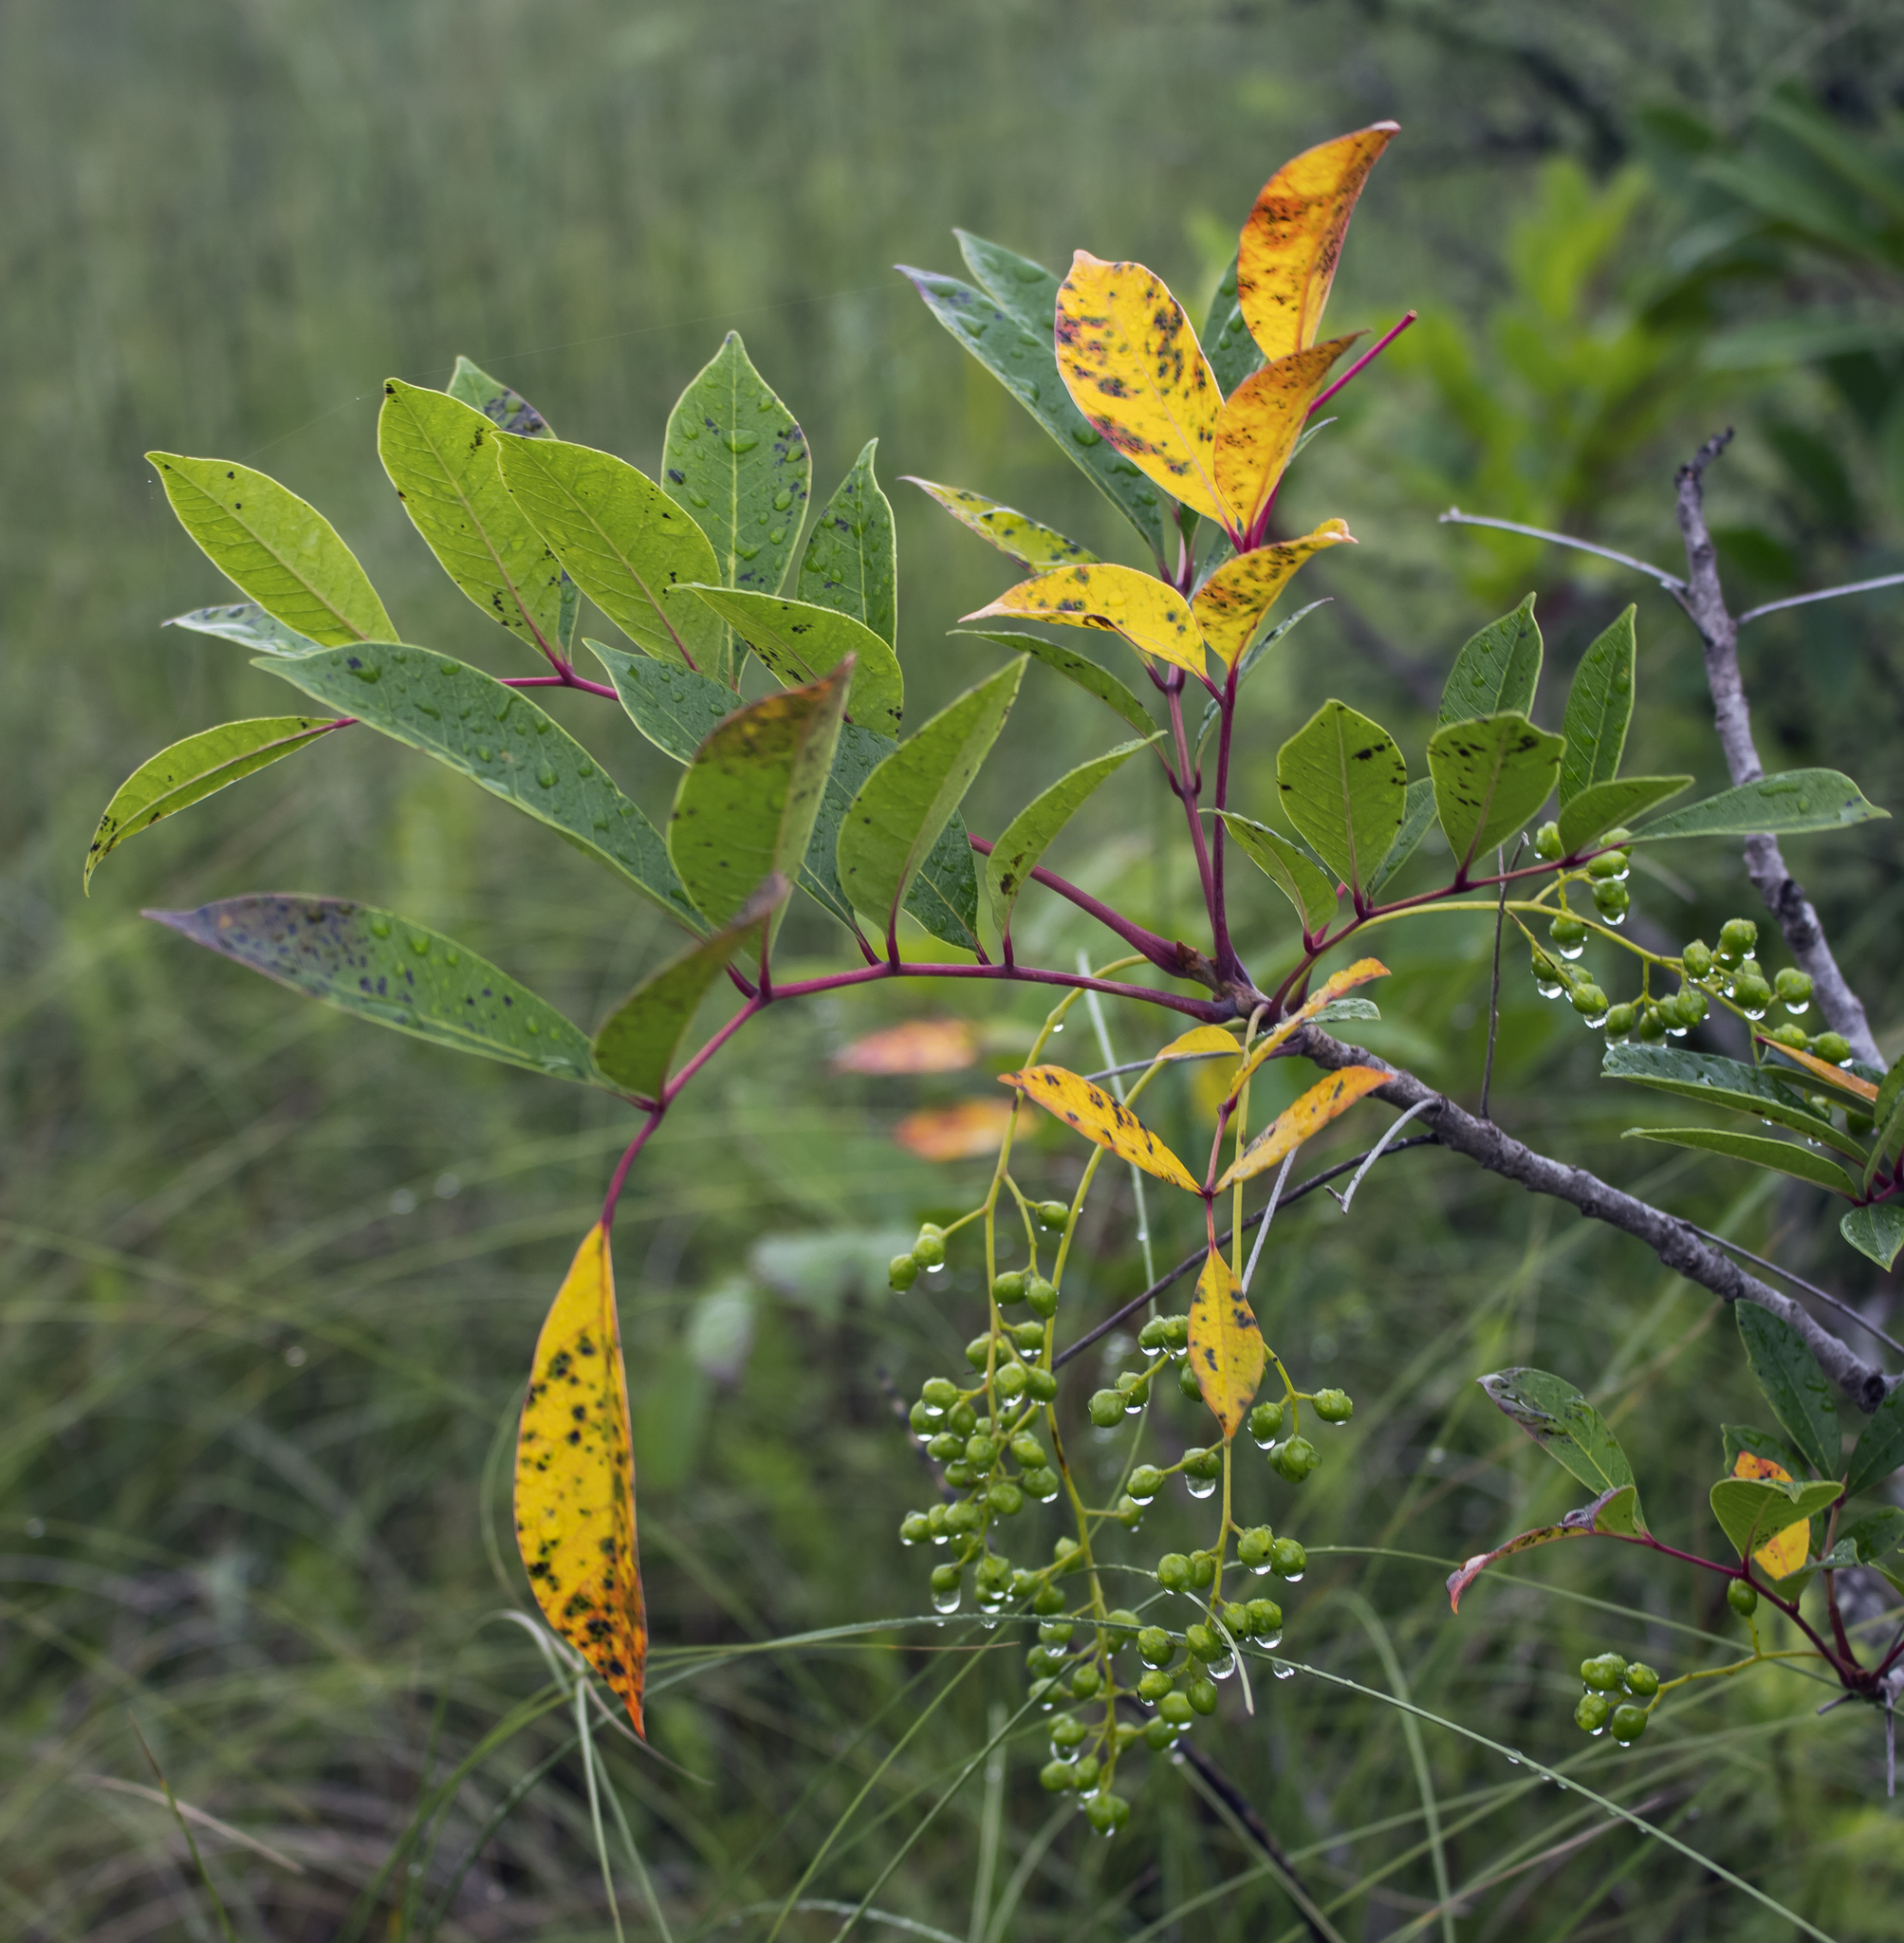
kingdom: Plantae
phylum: Tracheophyta
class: Magnoliopsida
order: Sapindales
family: Anacardiaceae
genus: Toxicodendron
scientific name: Toxicodendron vernix
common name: Poison sumac
